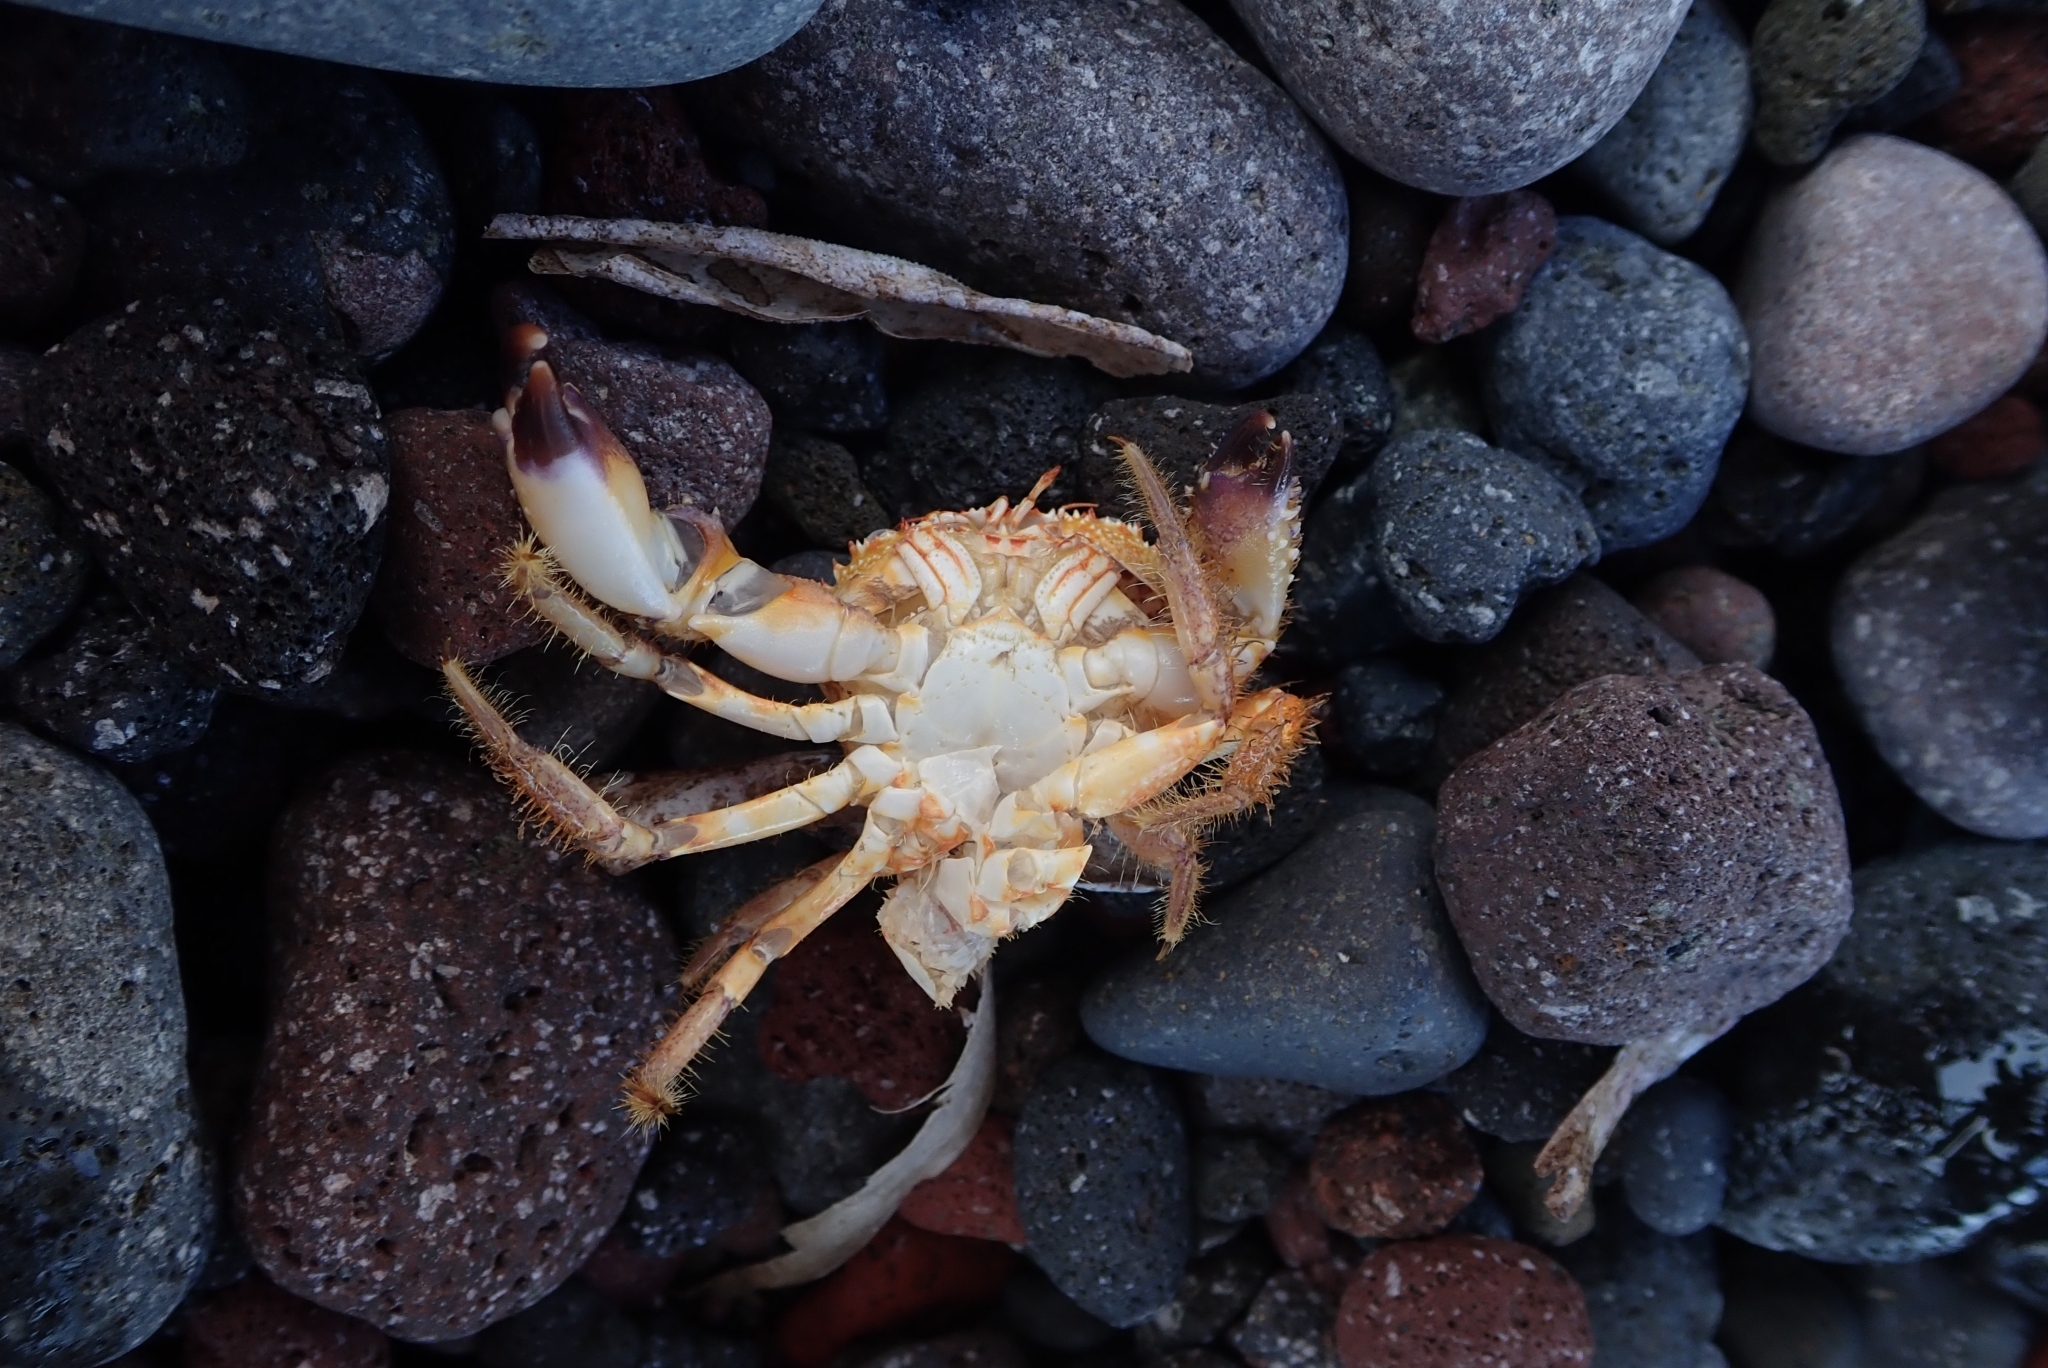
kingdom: Animalia
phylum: Arthropoda
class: Malacostraca
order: Decapoda
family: Eriphiidae
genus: Eriphia
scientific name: Eriphia verrucosa
